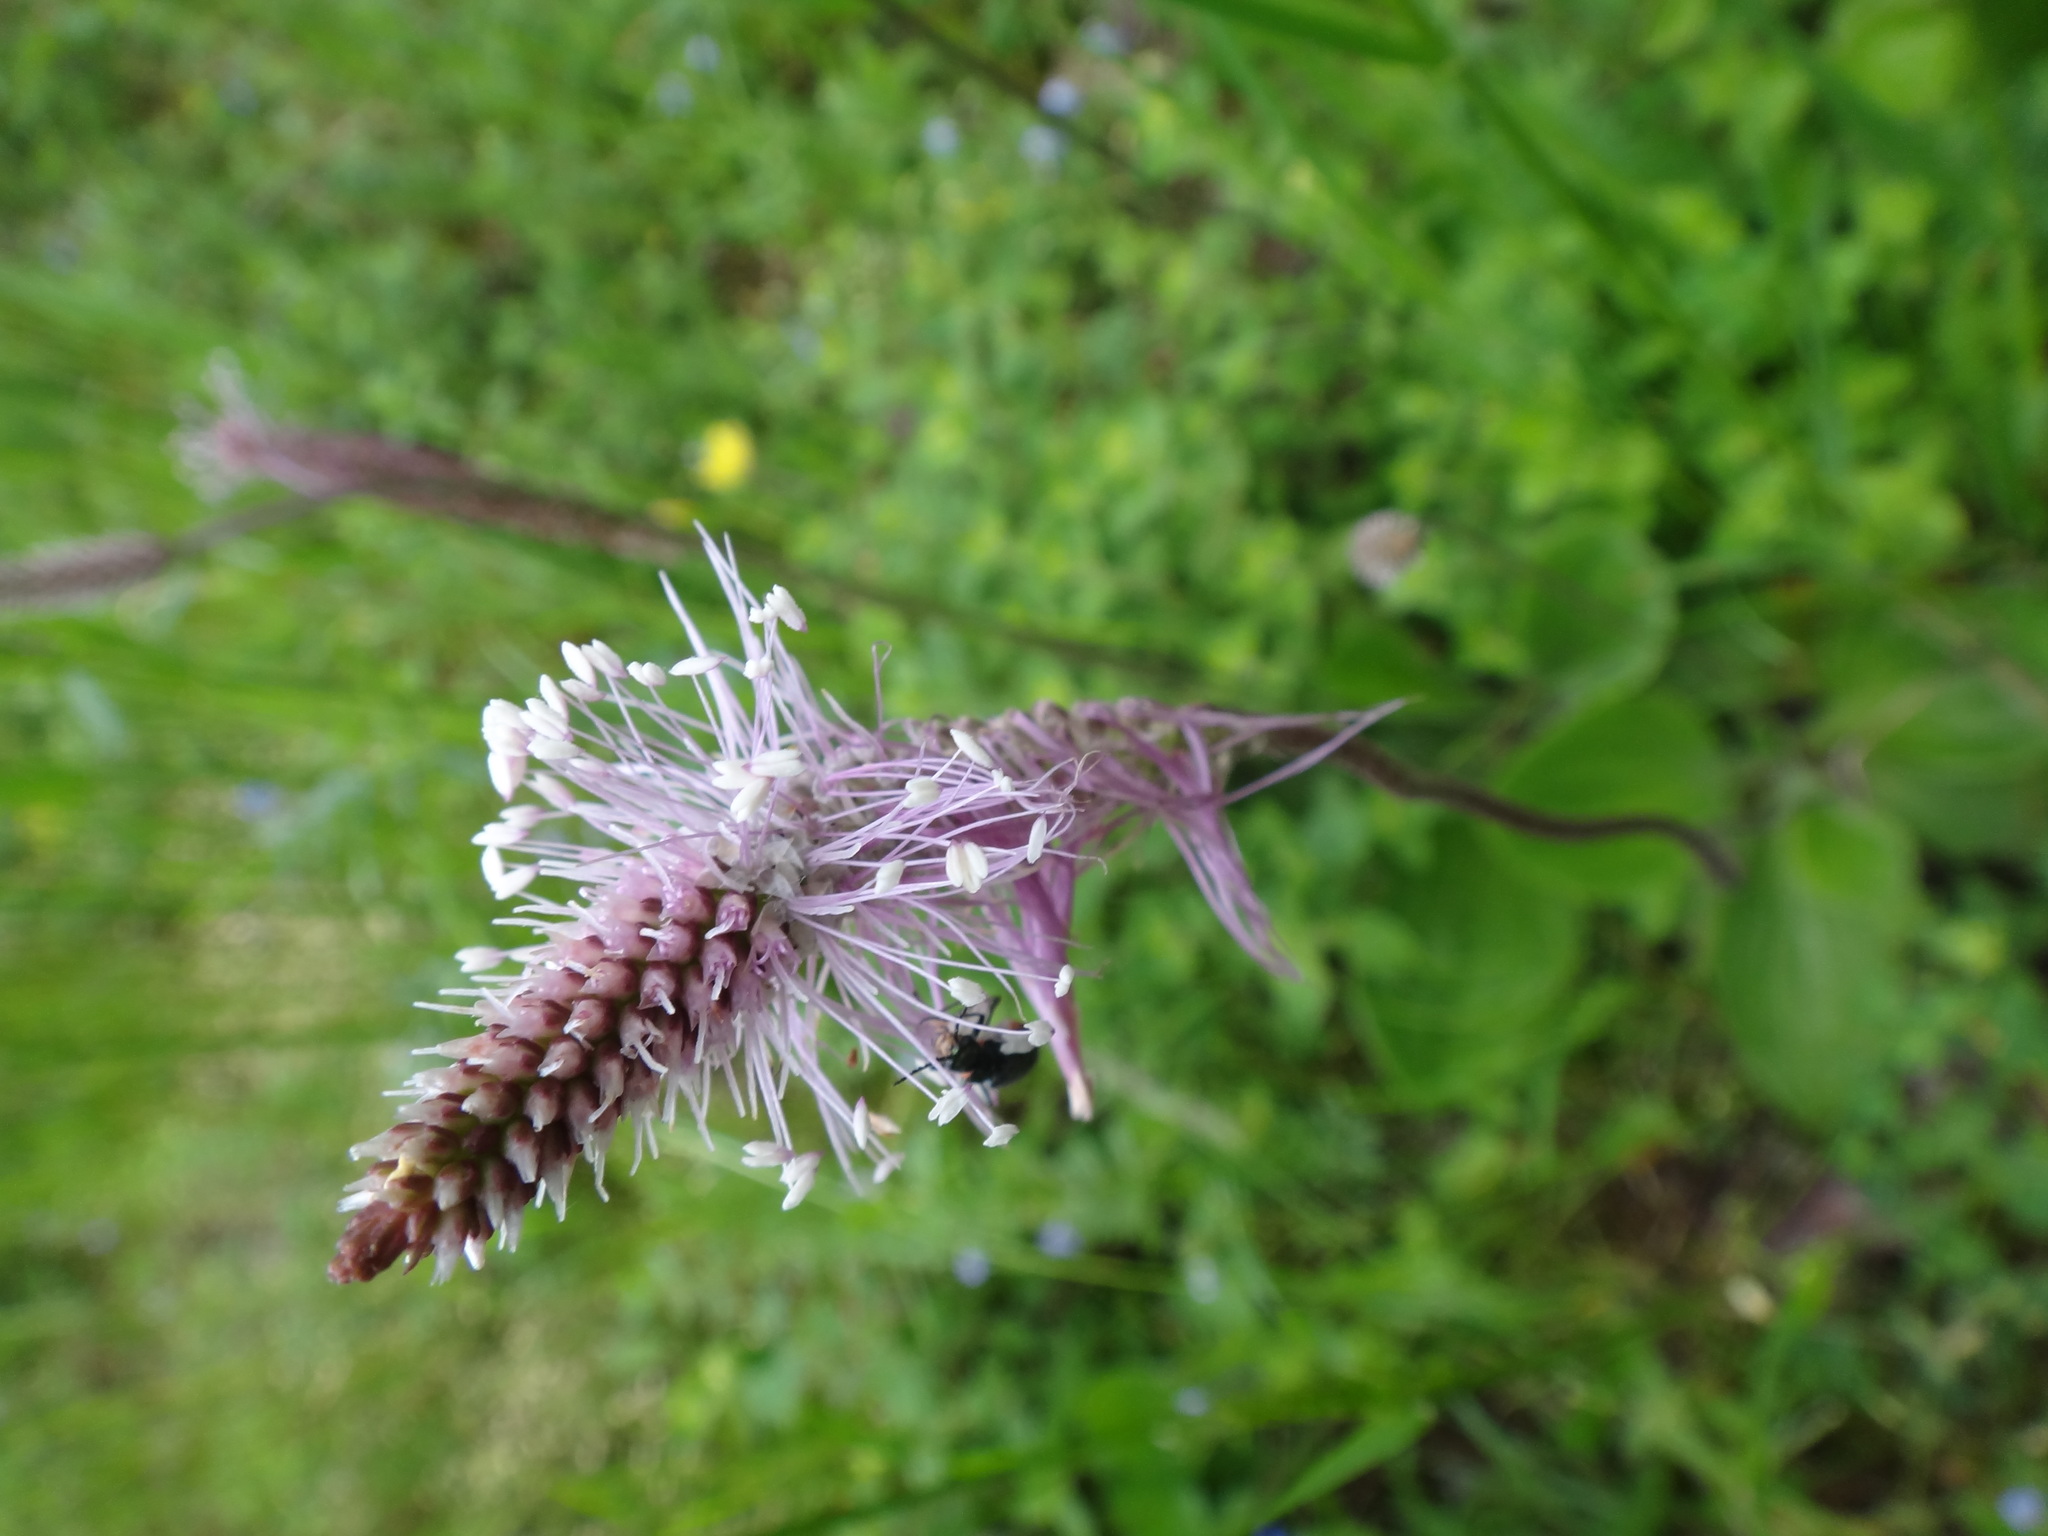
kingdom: Plantae
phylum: Tracheophyta
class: Magnoliopsida
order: Lamiales
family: Plantaginaceae
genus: Plantago
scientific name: Plantago media
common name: Hoary plantain
